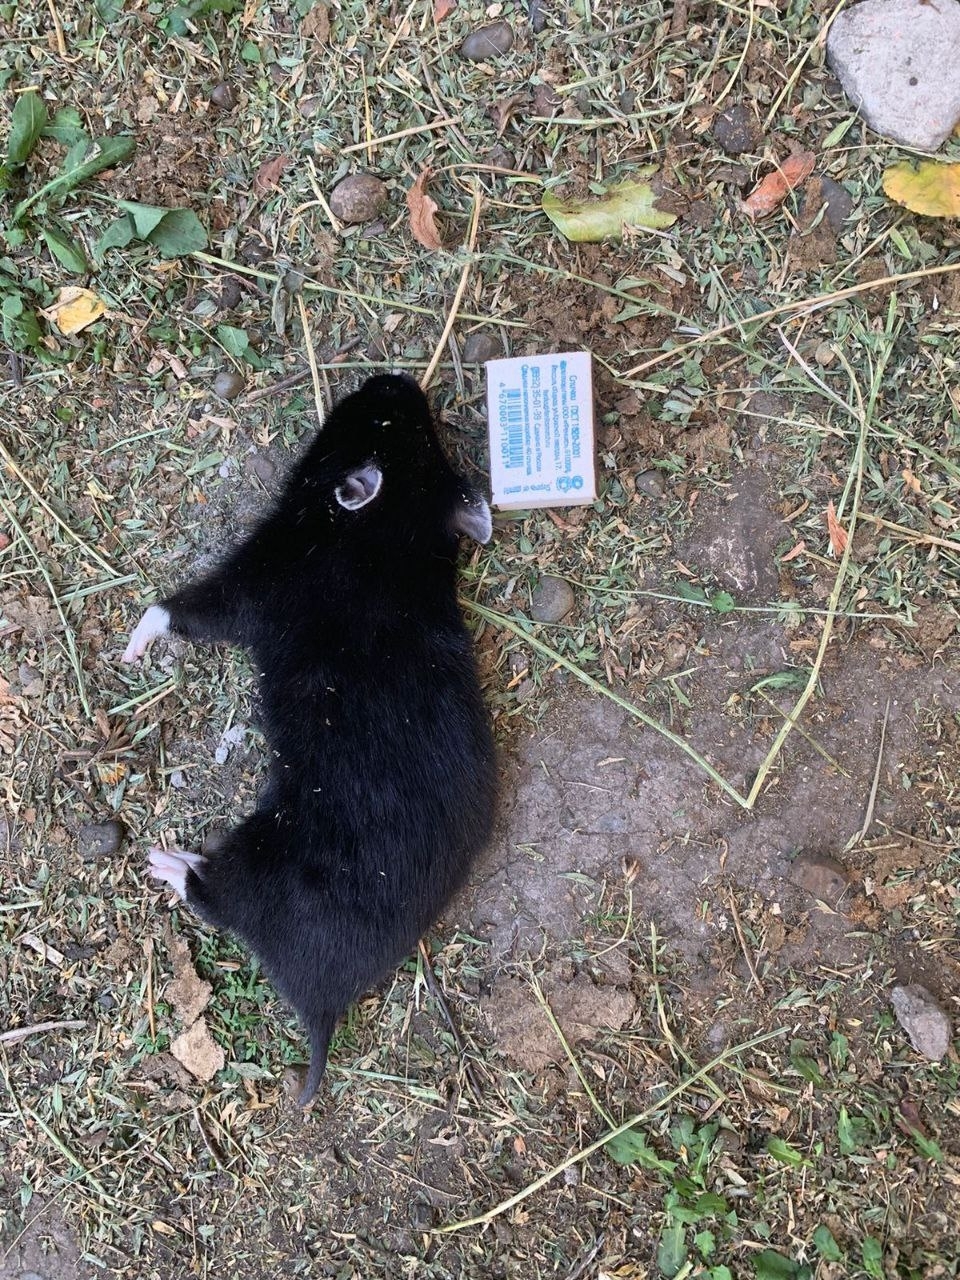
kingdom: Animalia
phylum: Chordata
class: Mammalia
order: Rodentia
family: Cricetidae
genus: Cricetus
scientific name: Cricetus cricetus
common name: Common hamster
